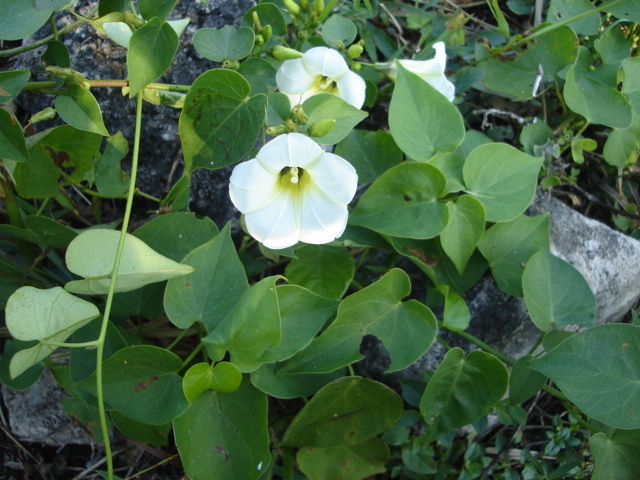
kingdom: Plantae
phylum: Tracheophyta
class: Magnoliopsida
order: Solanales
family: Convolvulaceae
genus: Ipomoea
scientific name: Ipomoea corymbosa
